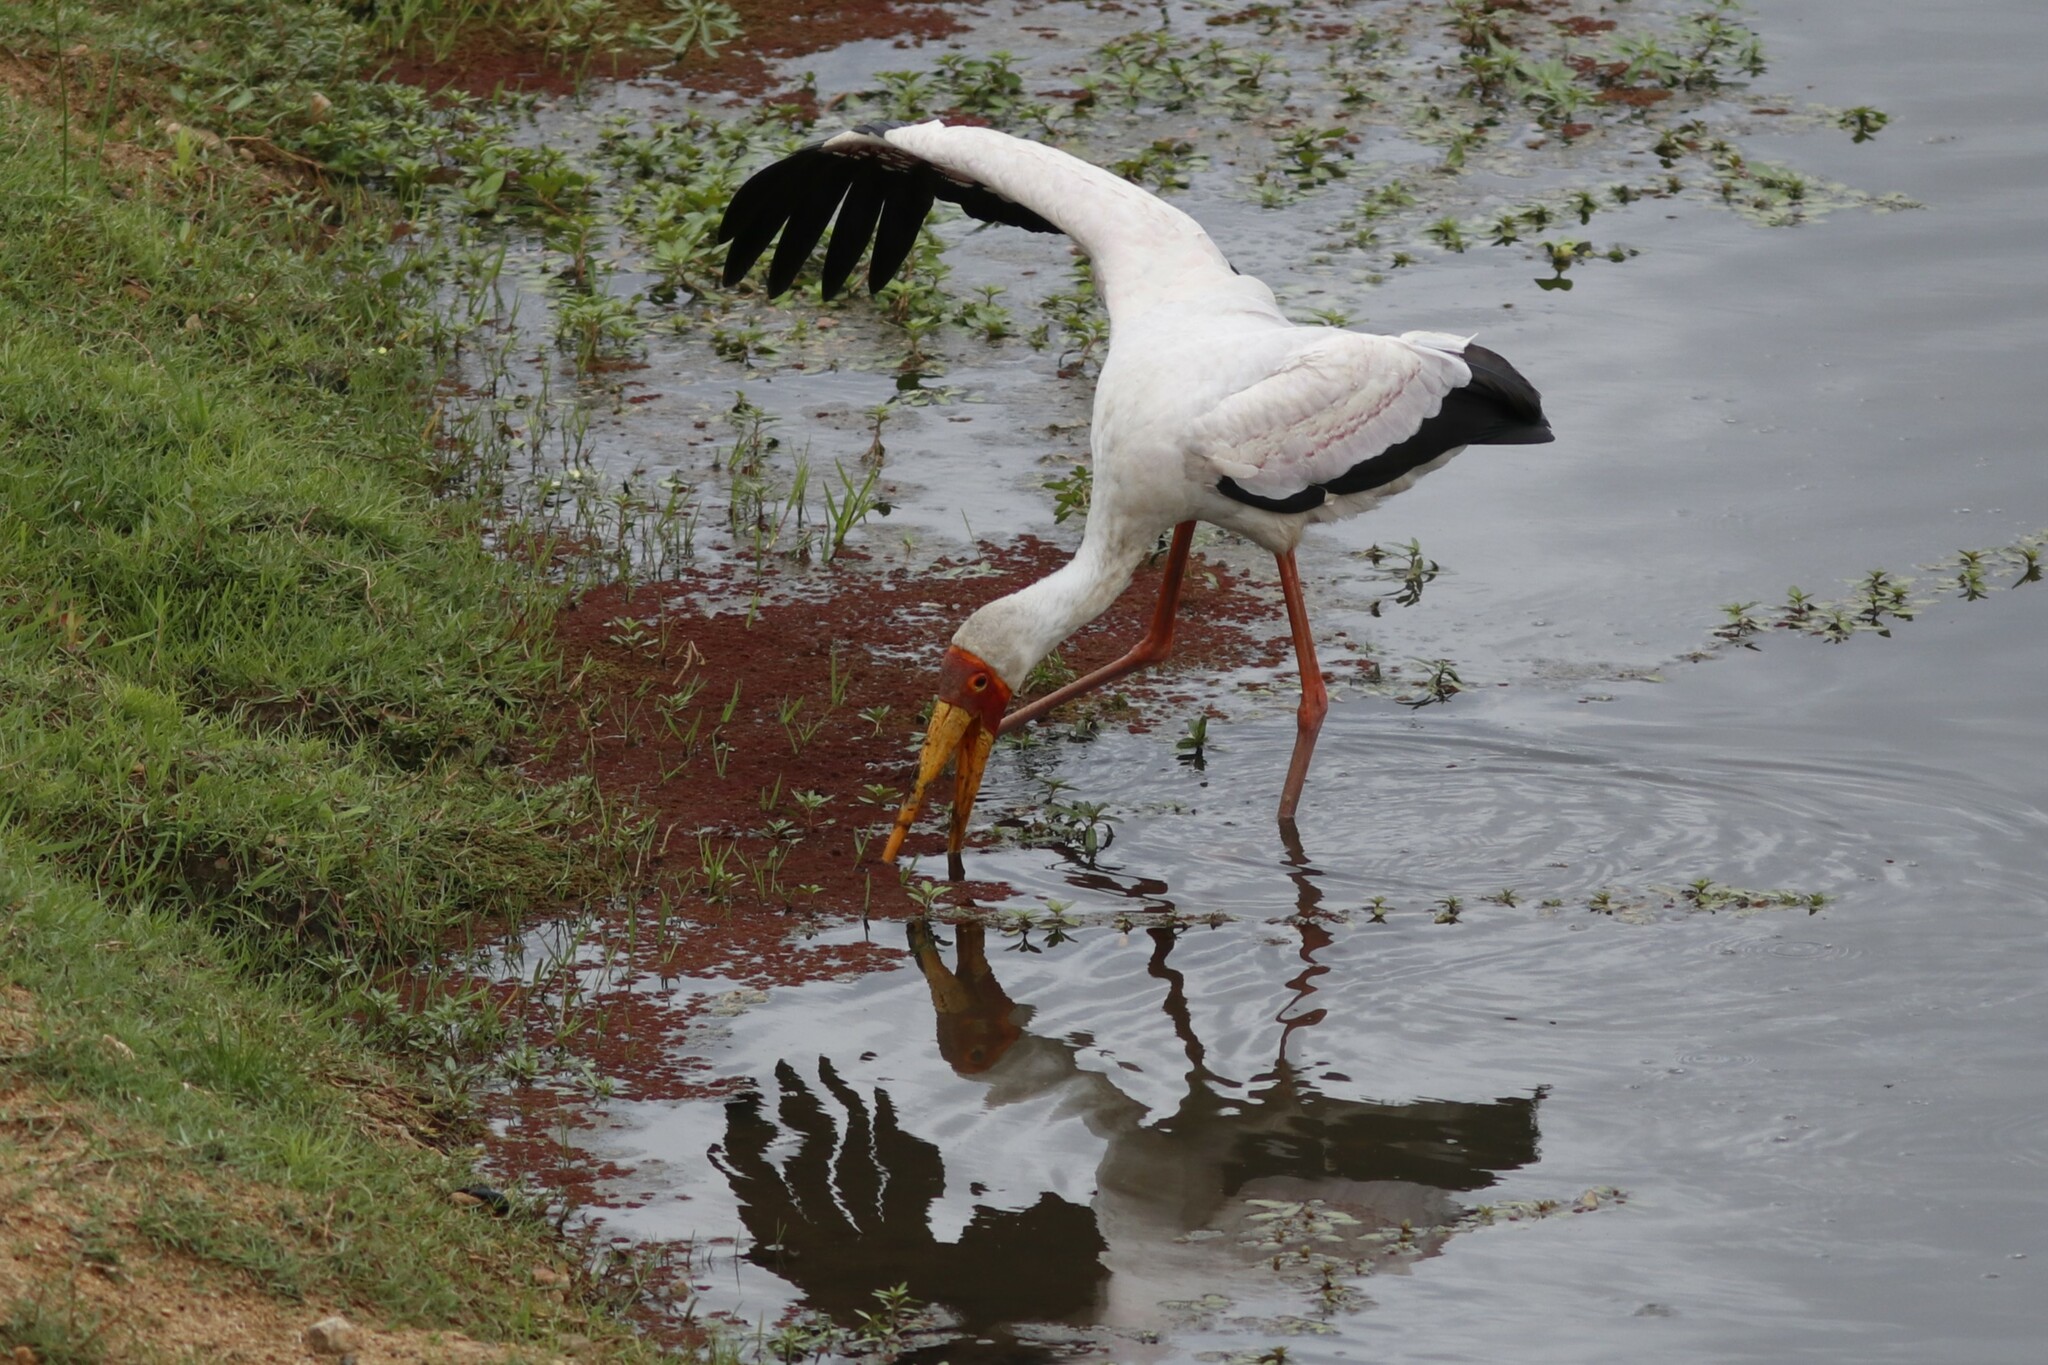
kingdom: Animalia
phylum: Chordata
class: Aves
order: Ciconiiformes
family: Ciconiidae
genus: Mycteria
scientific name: Mycteria ibis
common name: Yellow-billed stork
